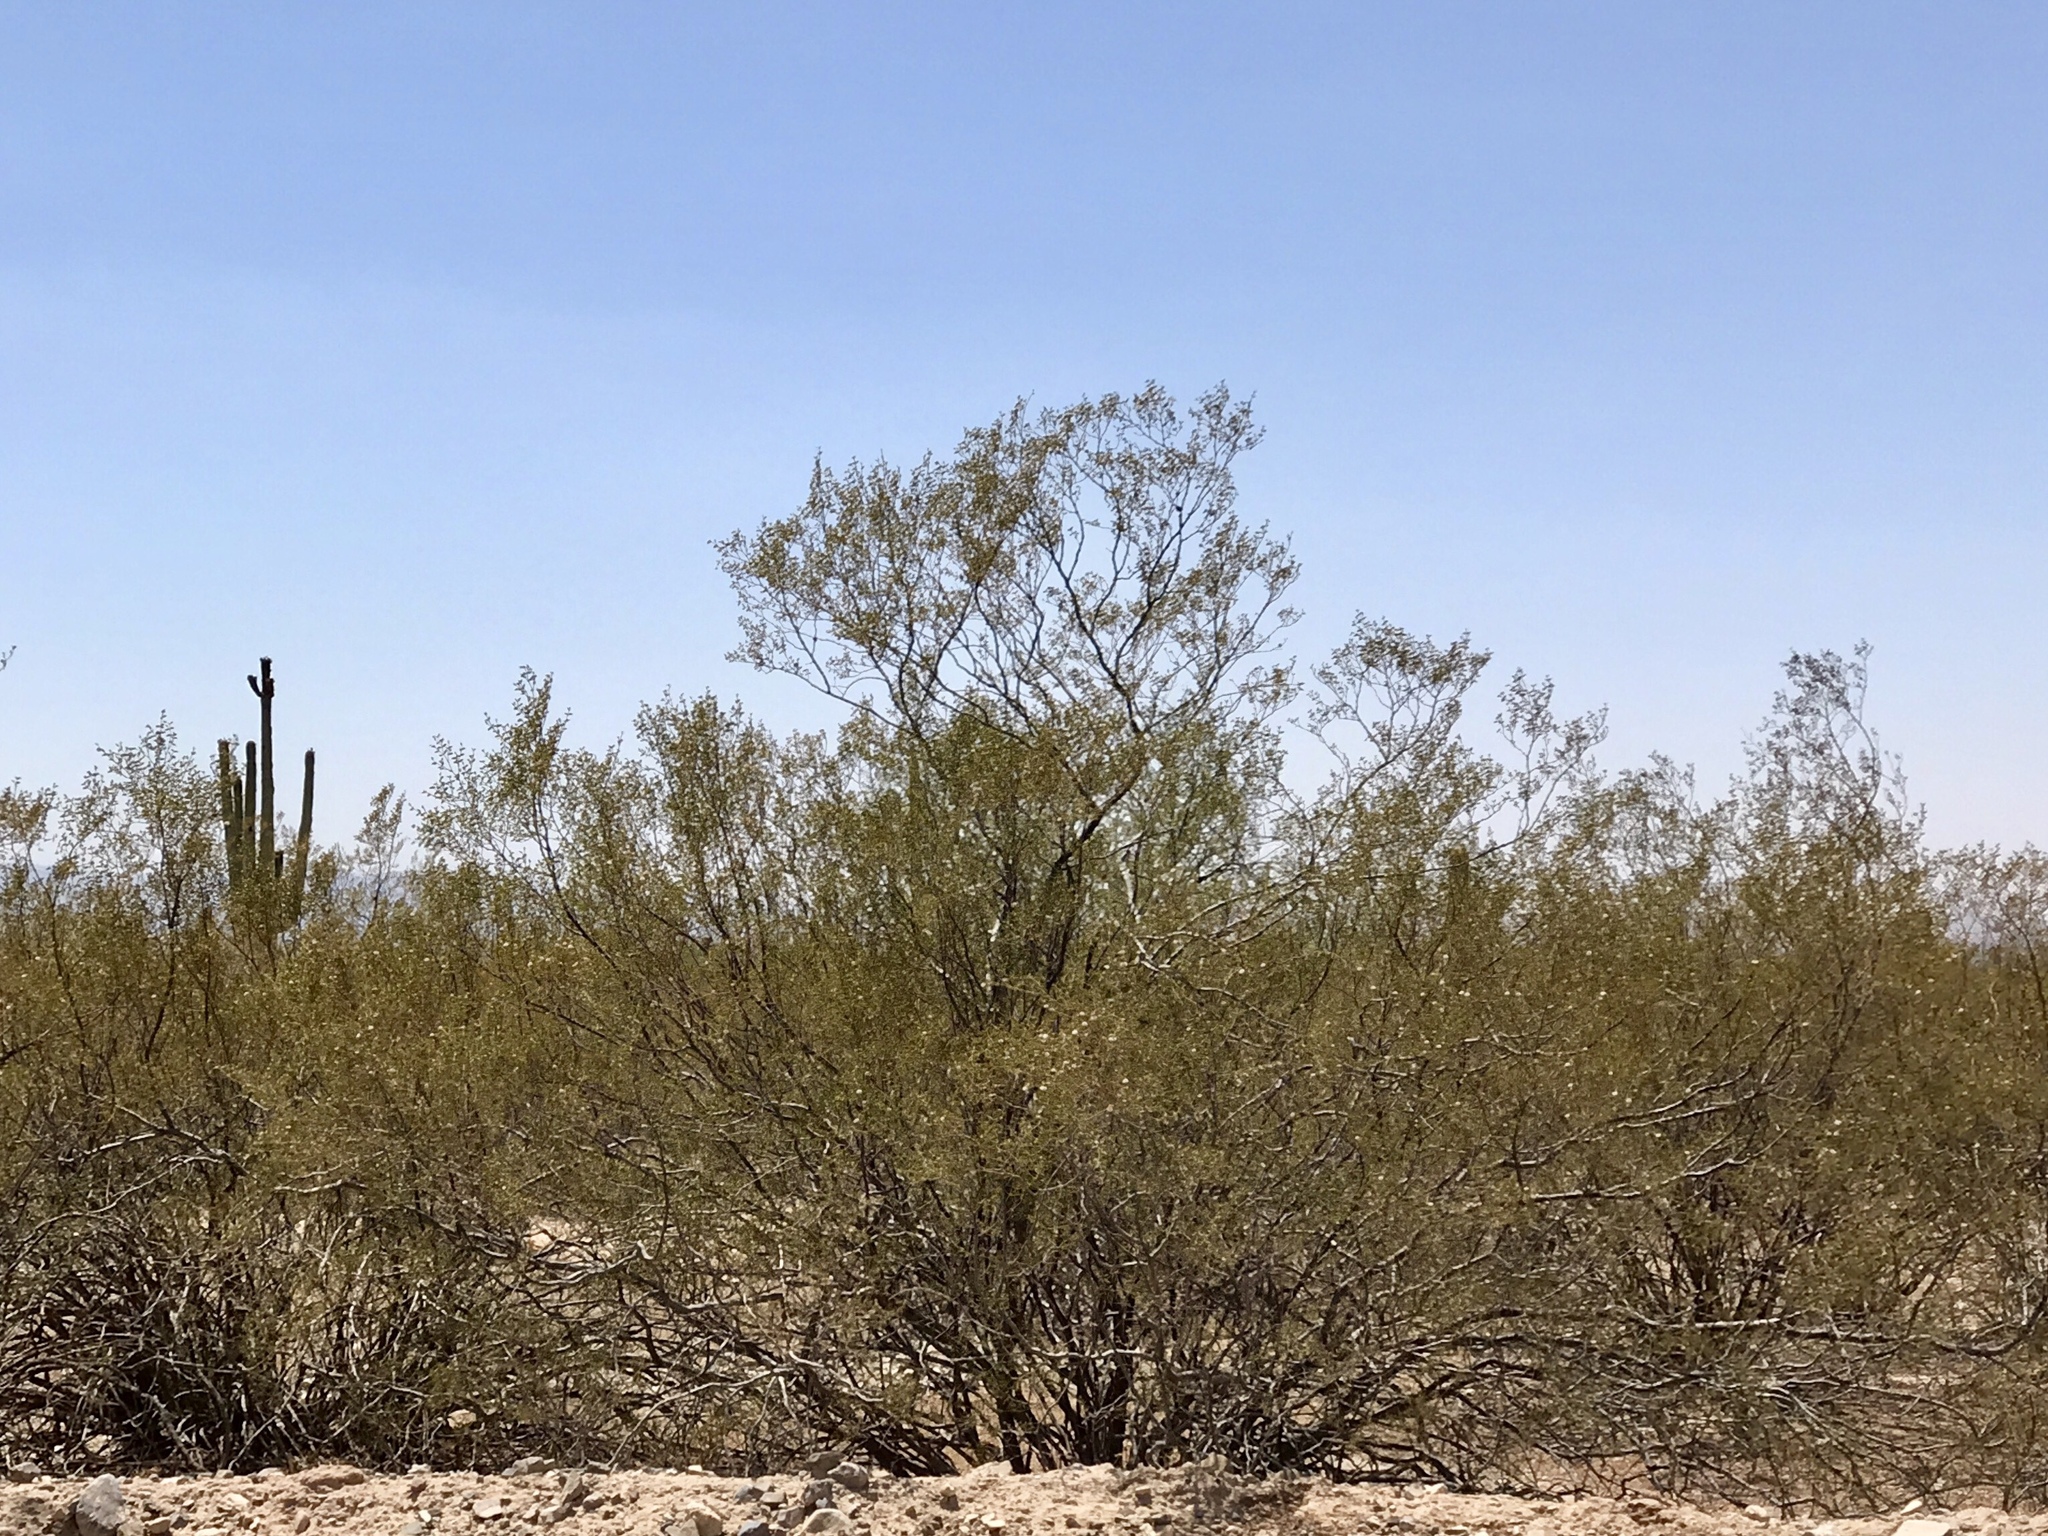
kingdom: Plantae
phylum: Tracheophyta
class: Magnoliopsida
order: Zygophyllales
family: Zygophyllaceae
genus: Larrea
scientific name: Larrea tridentata
